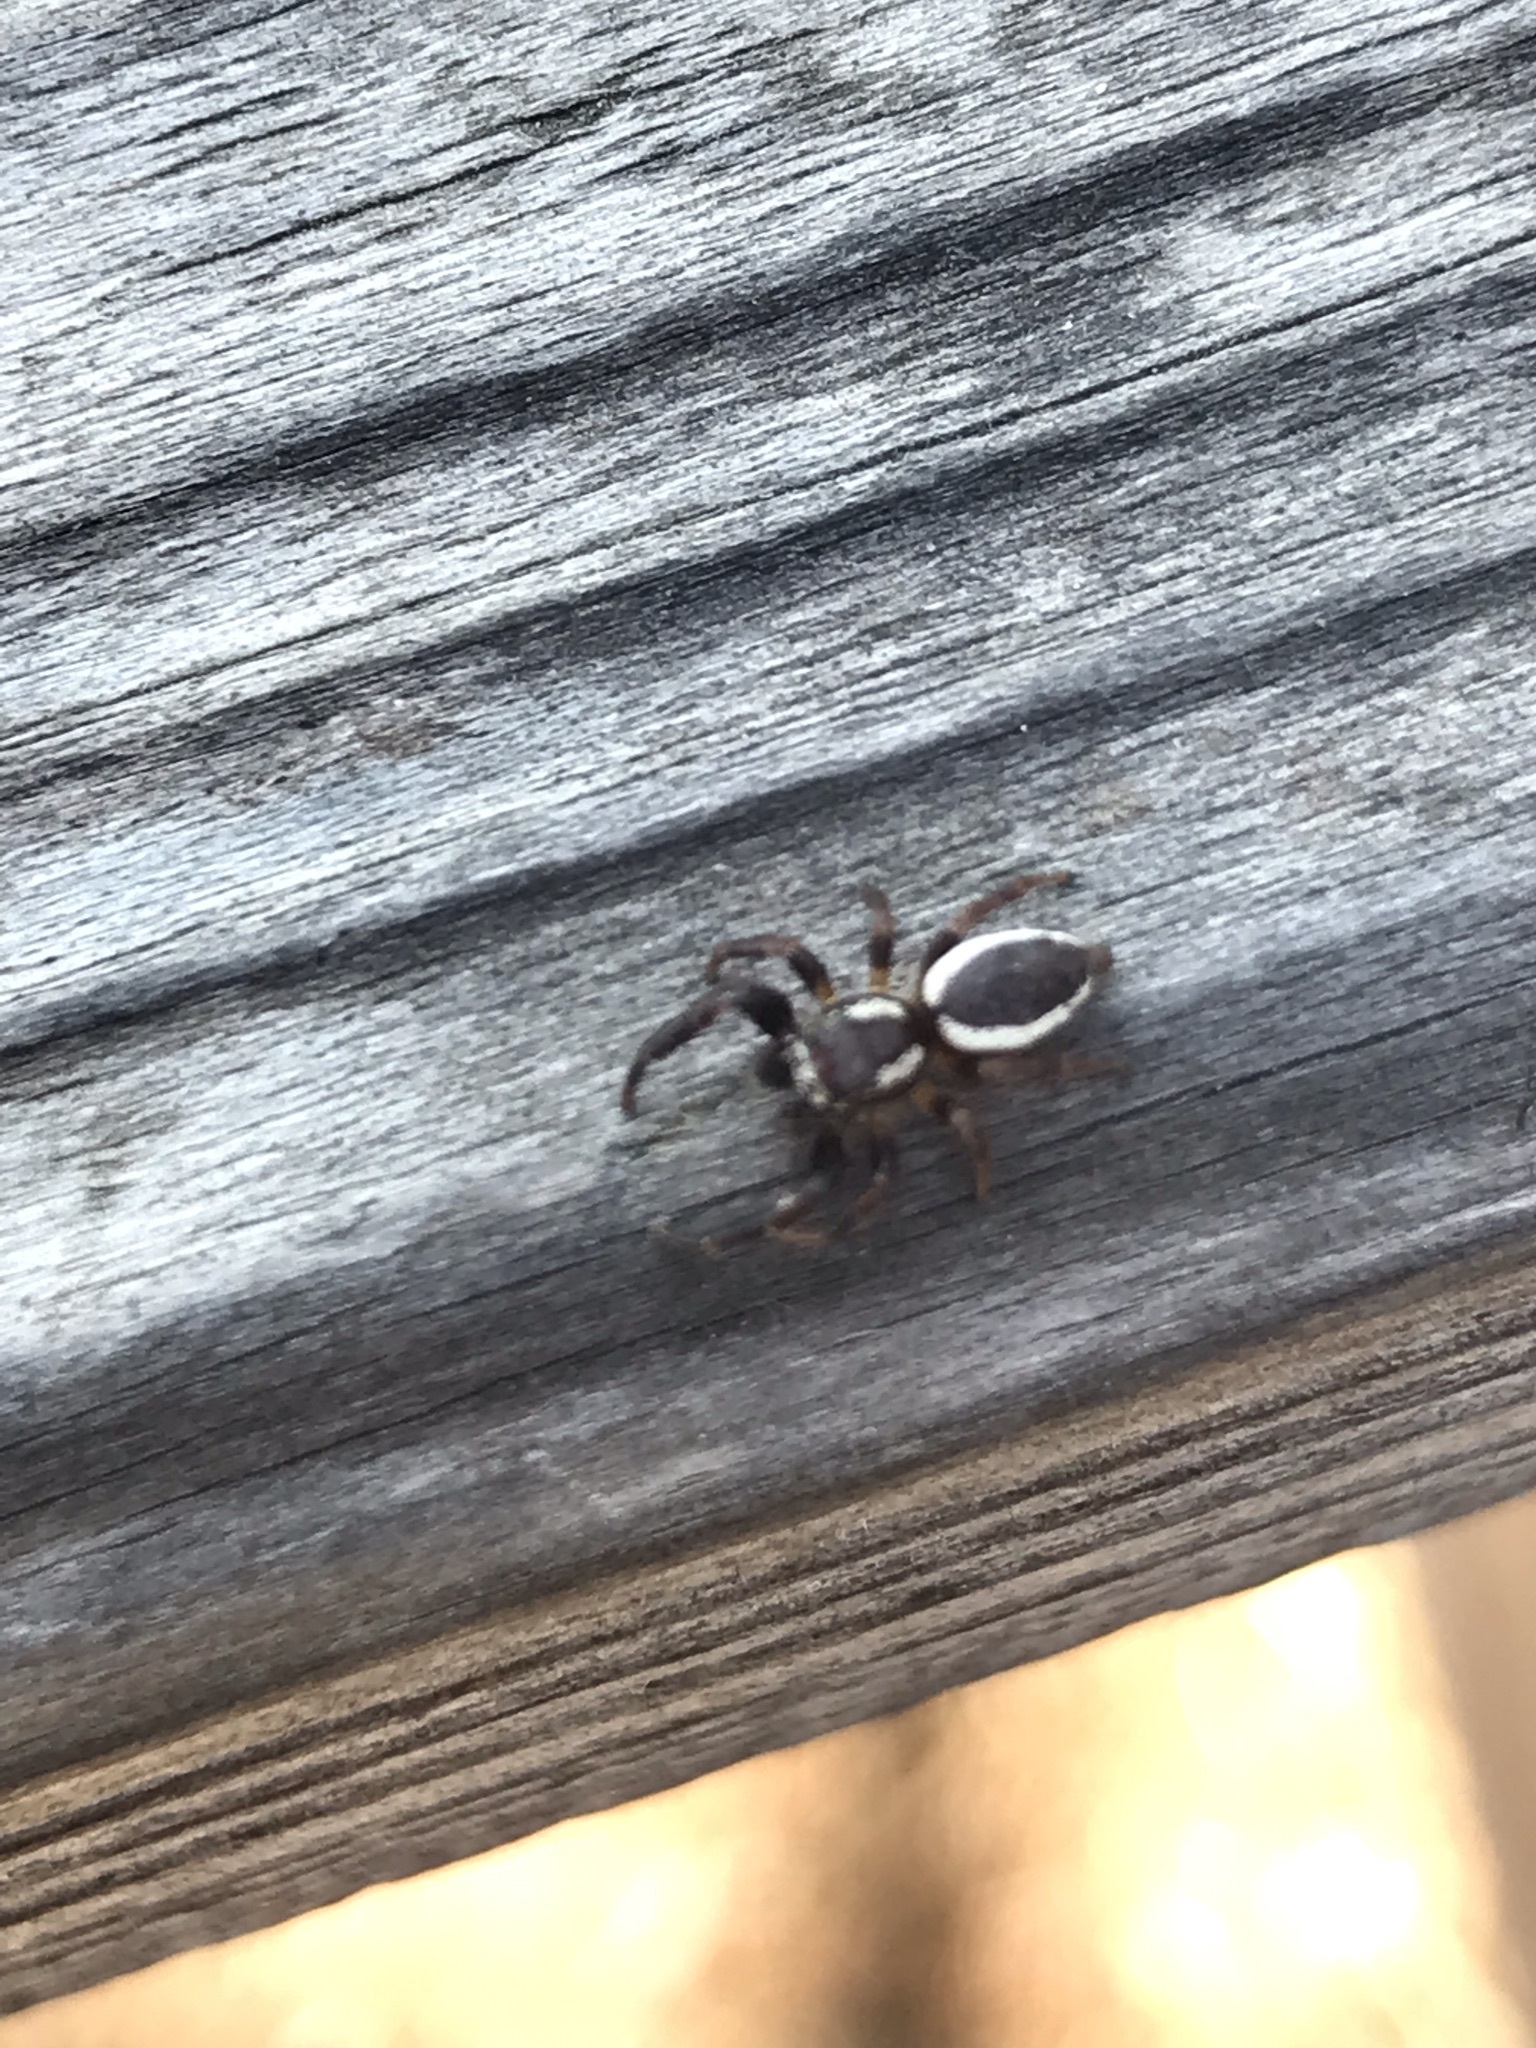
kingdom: Animalia
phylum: Arthropoda
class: Arachnida
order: Araneae
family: Salticidae
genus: Phanias
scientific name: Phanias albeolus
